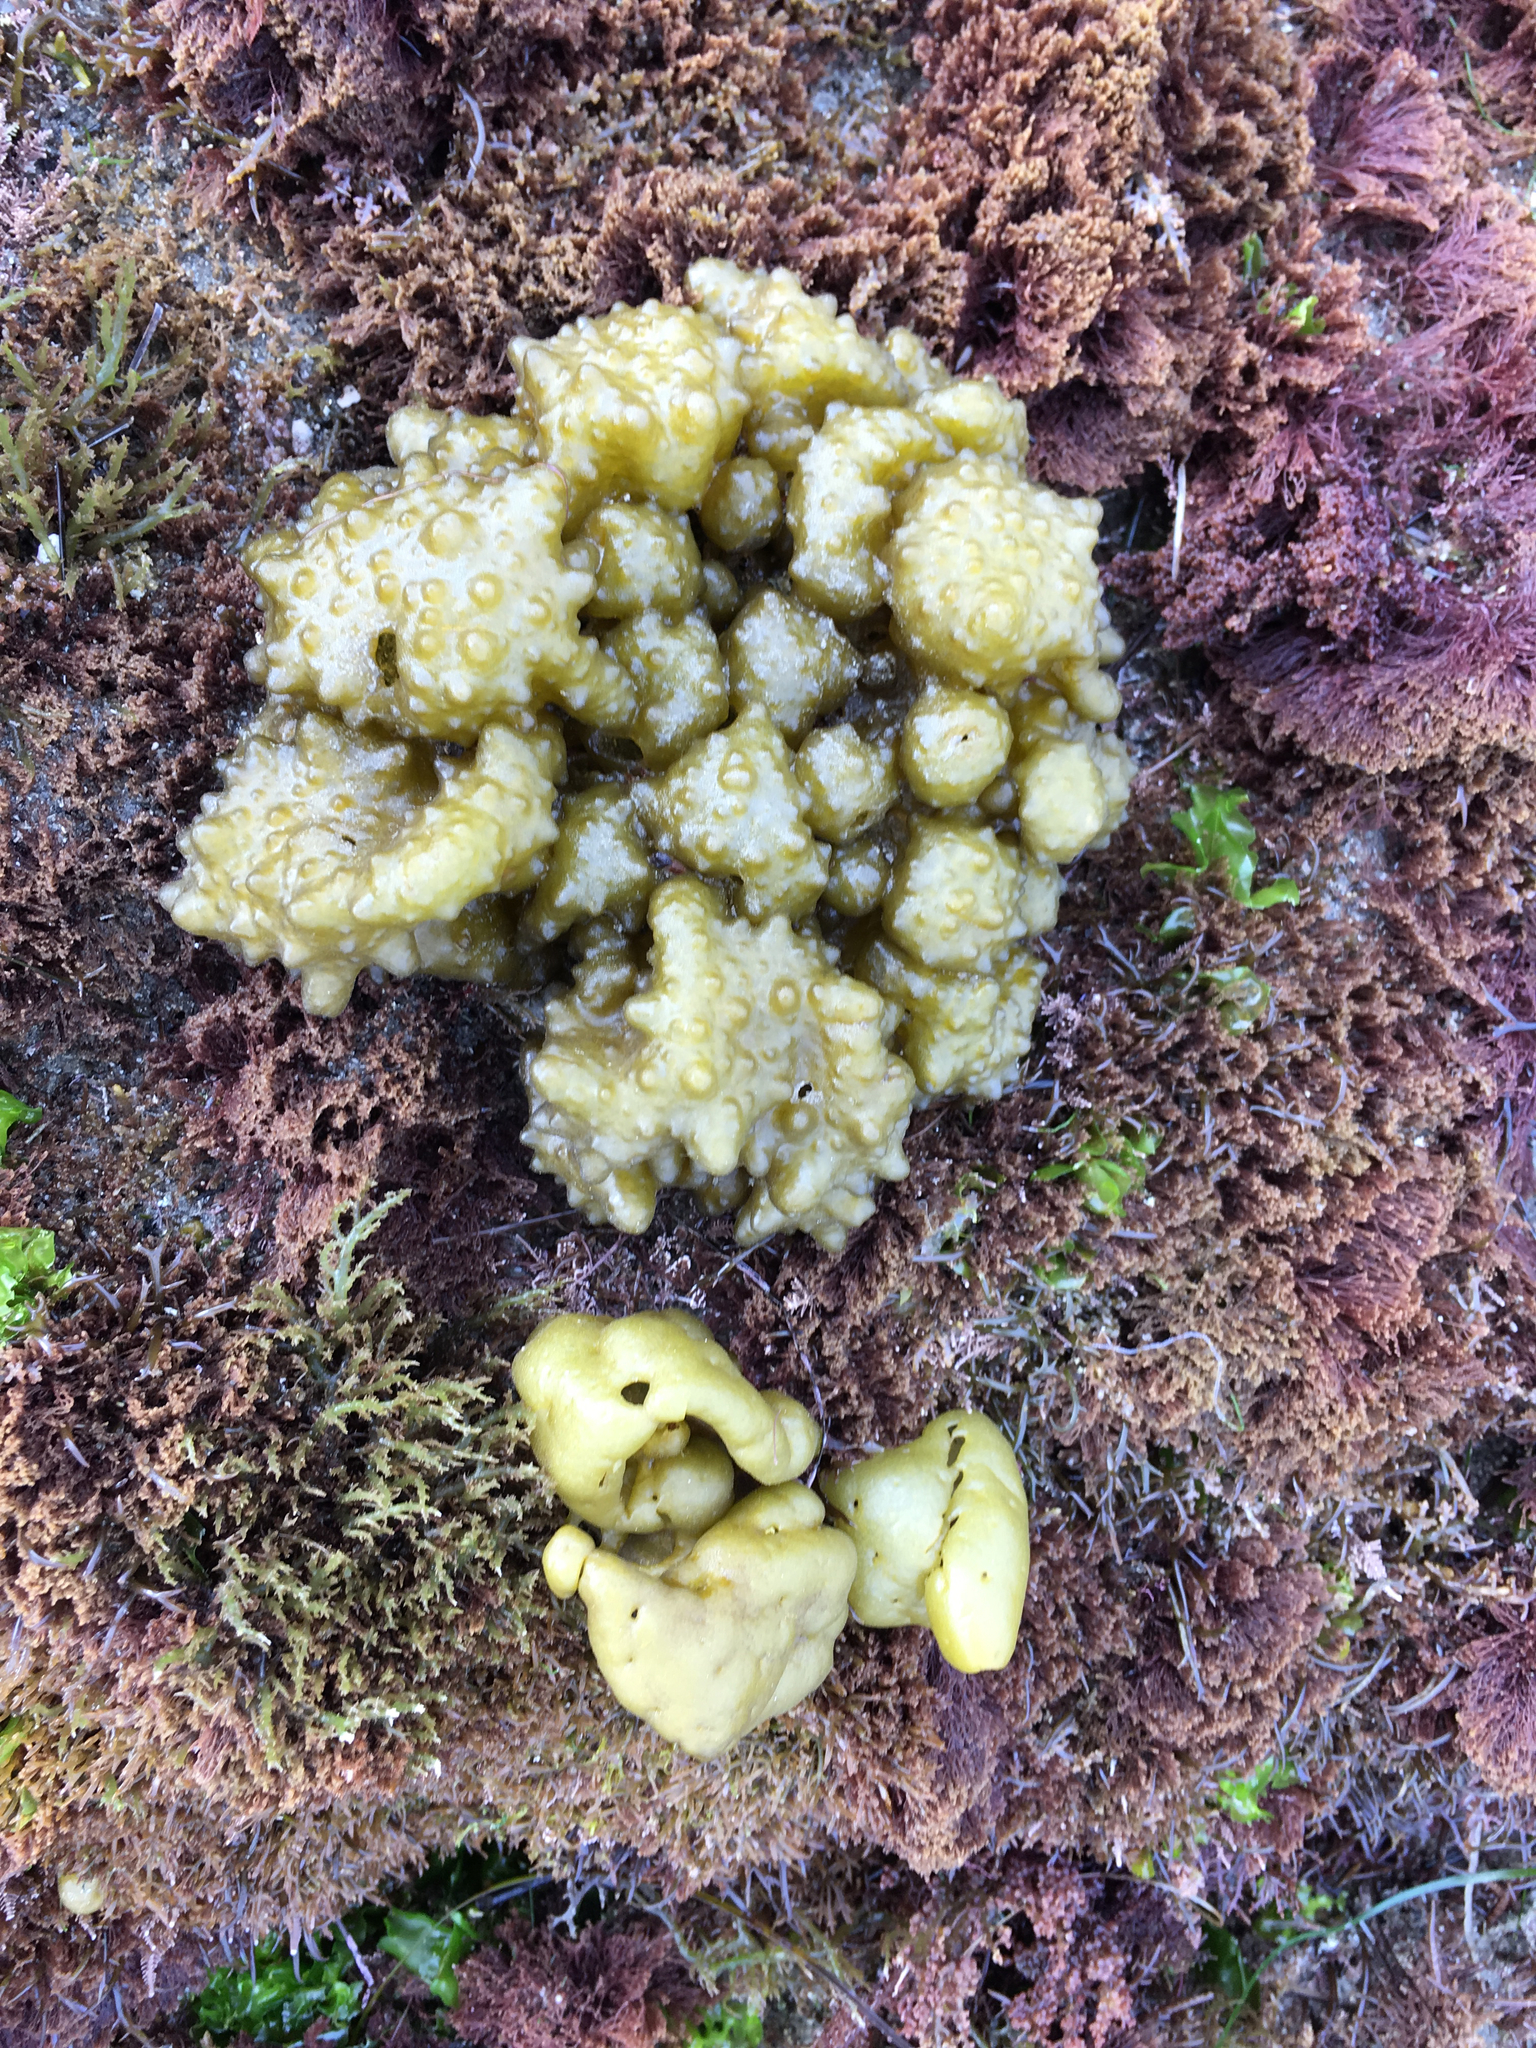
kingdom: Chromista
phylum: Ochrophyta
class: Phaeophyceae
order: Scytosiphonales
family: Scytosiphonaceae
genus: Colpomenia
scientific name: Colpomenia
